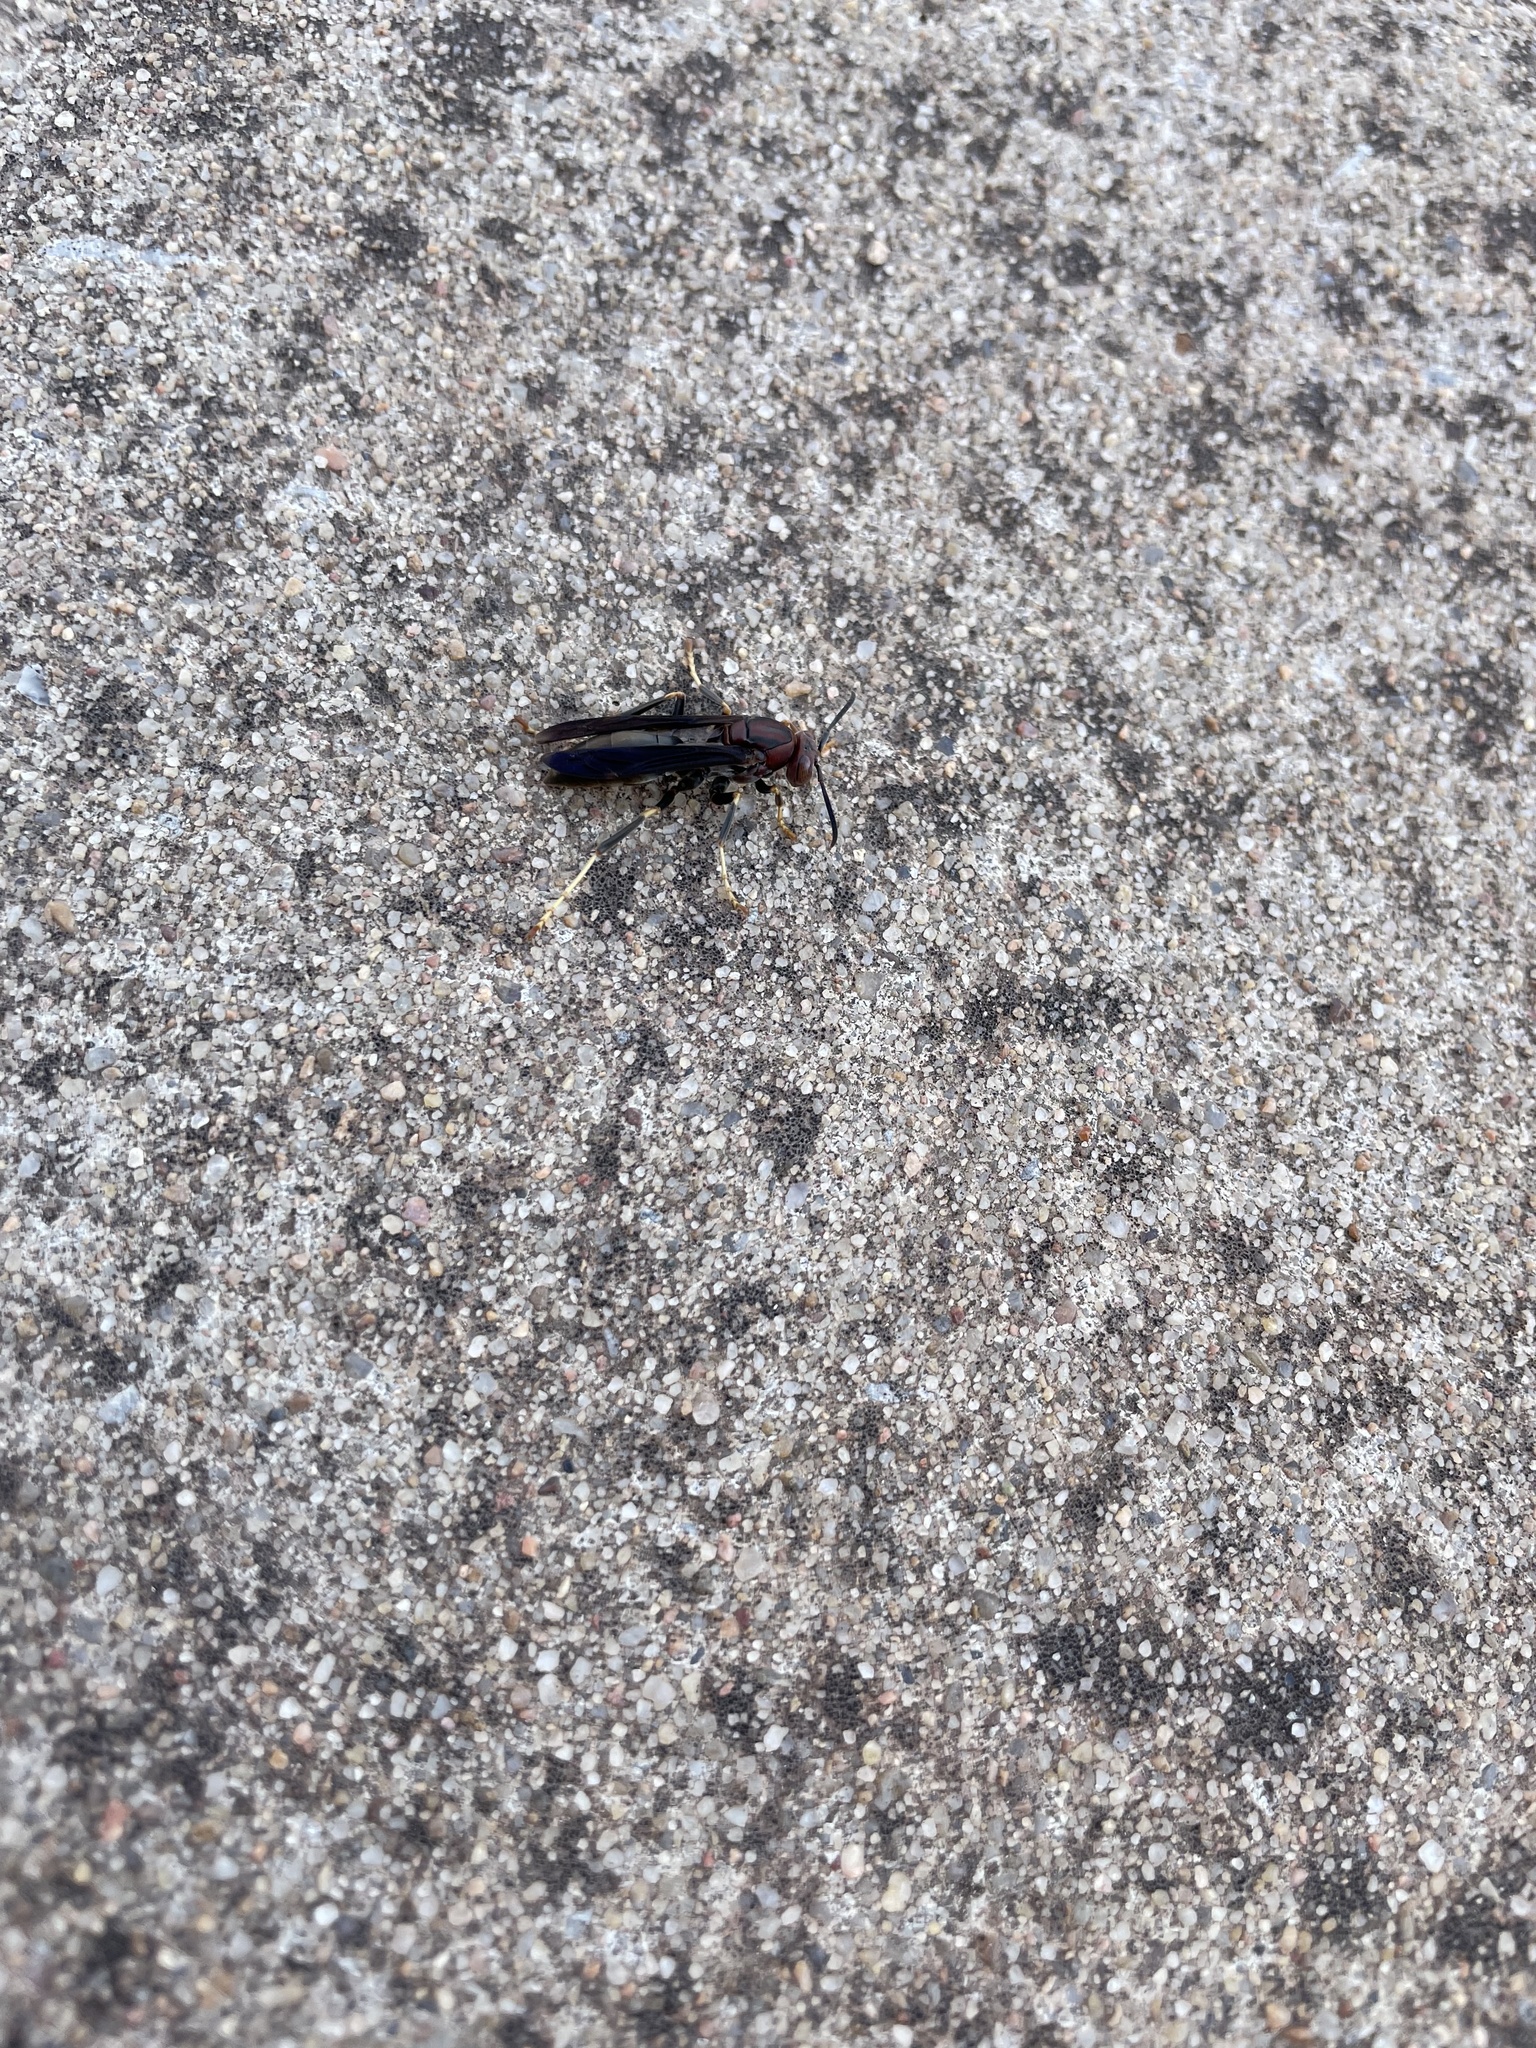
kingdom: Animalia
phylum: Arthropoda
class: Insecta
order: Hymenoptera
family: Eumenidae
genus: Polistes
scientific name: Polistes metricus
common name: Metric paper wasp
